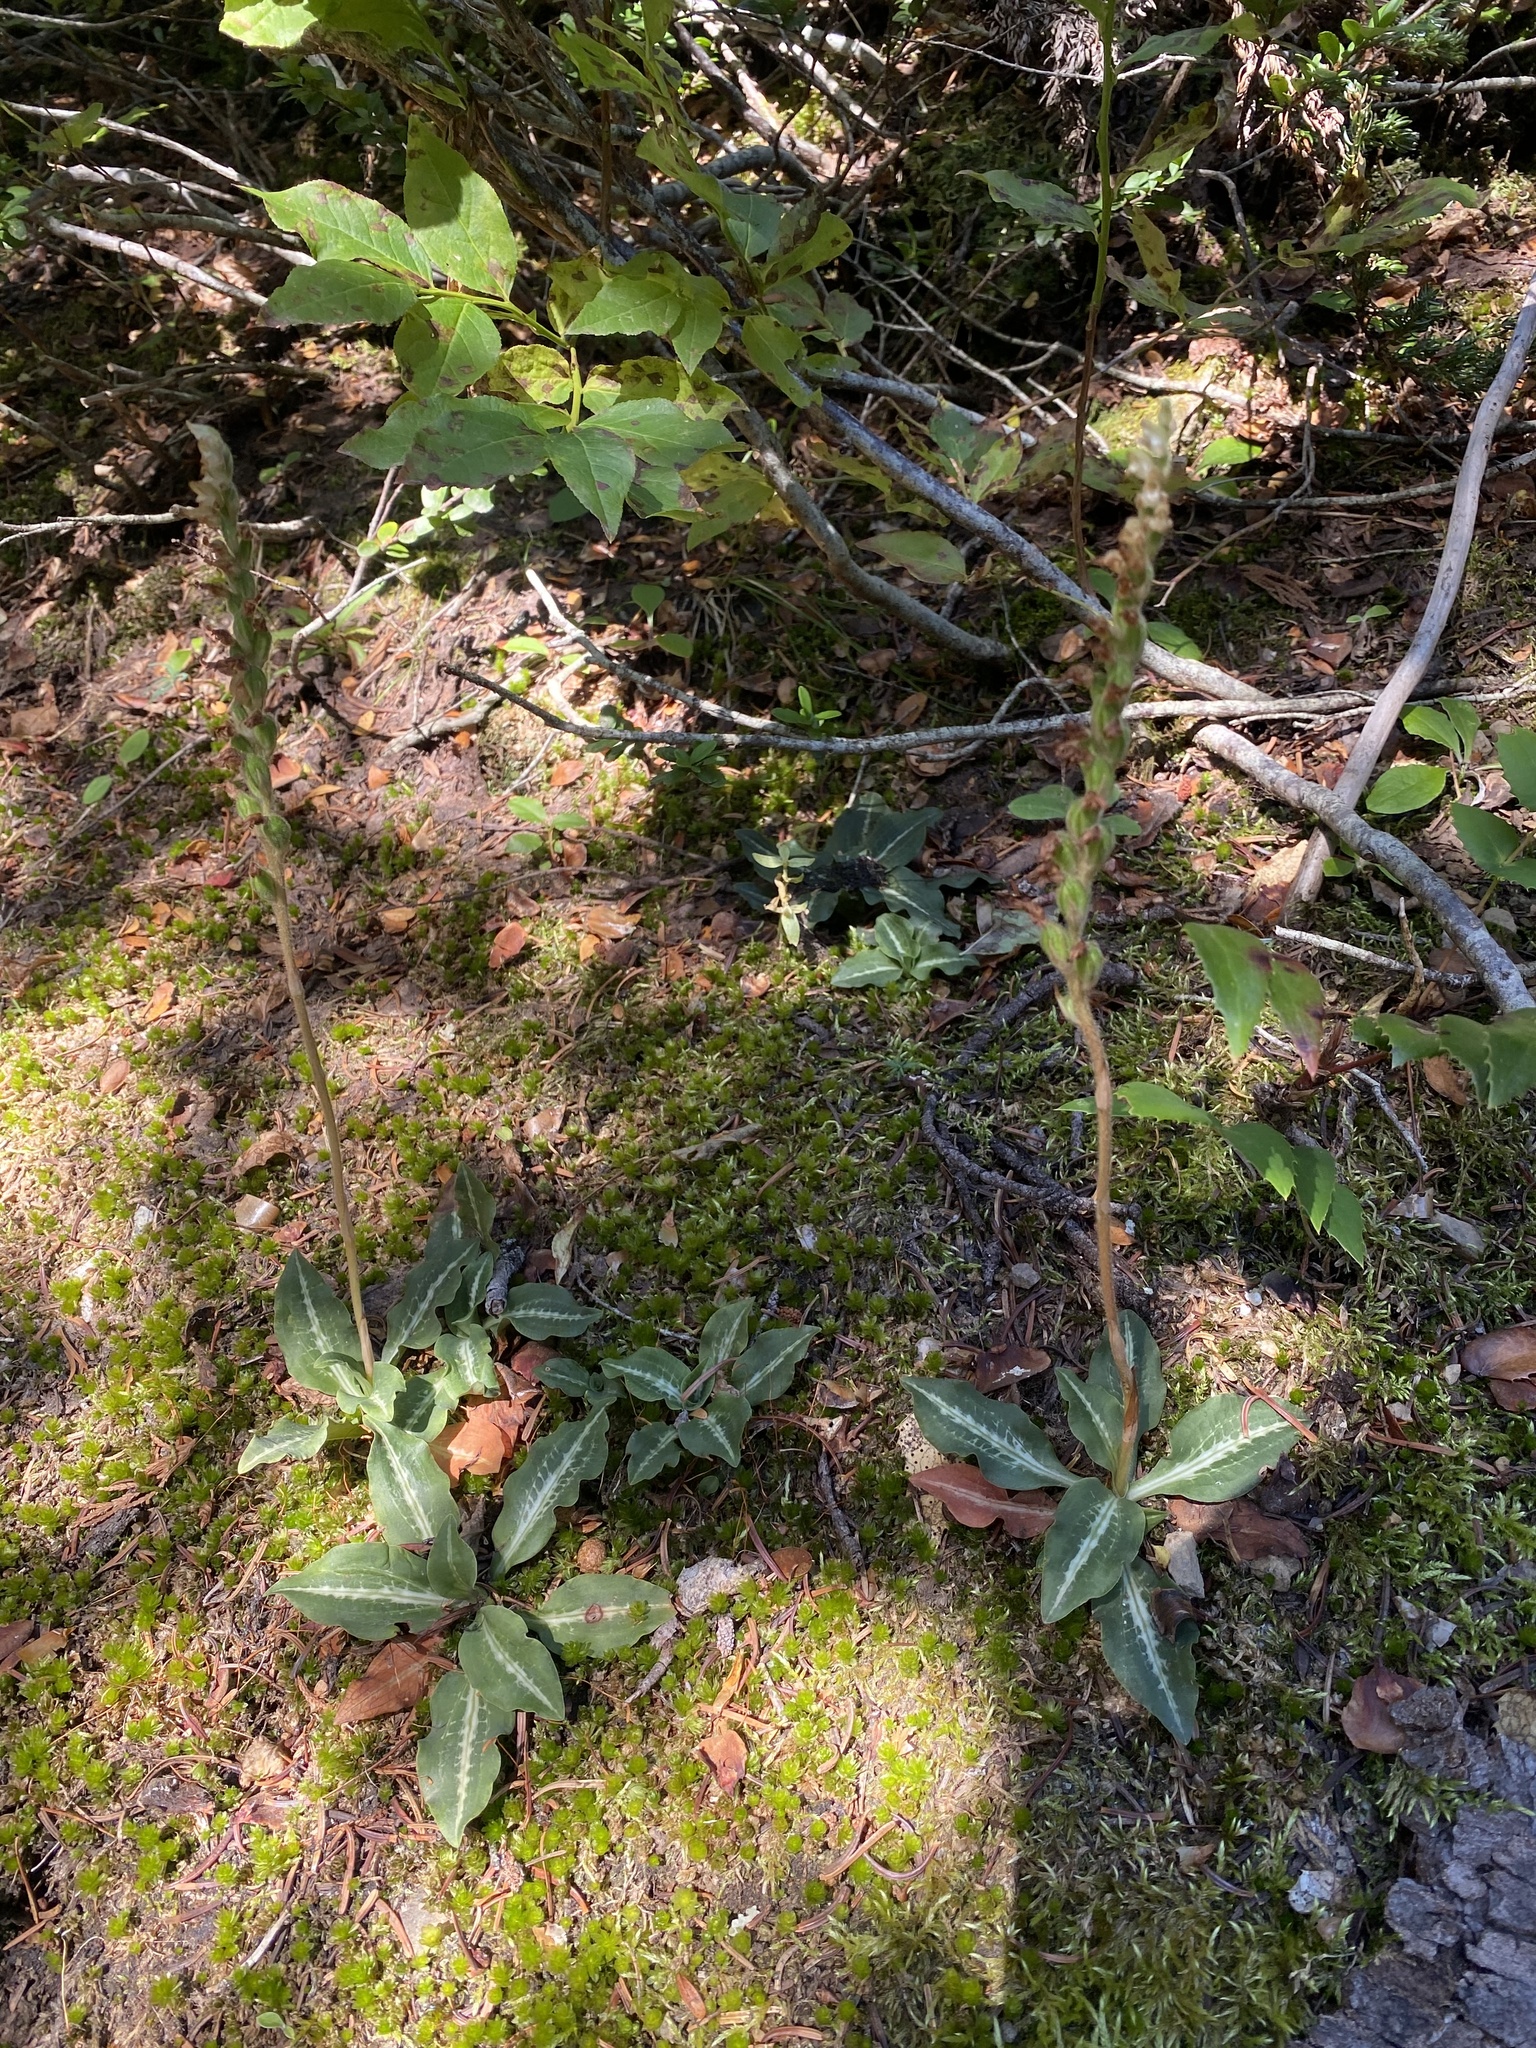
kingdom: Plantae
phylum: Tracheophyta
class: Liliopsida
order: Asparagales
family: Orchidaceae
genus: Goodyera
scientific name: Goodyera oblongifolia
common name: Giant rattlesnake-plantain
